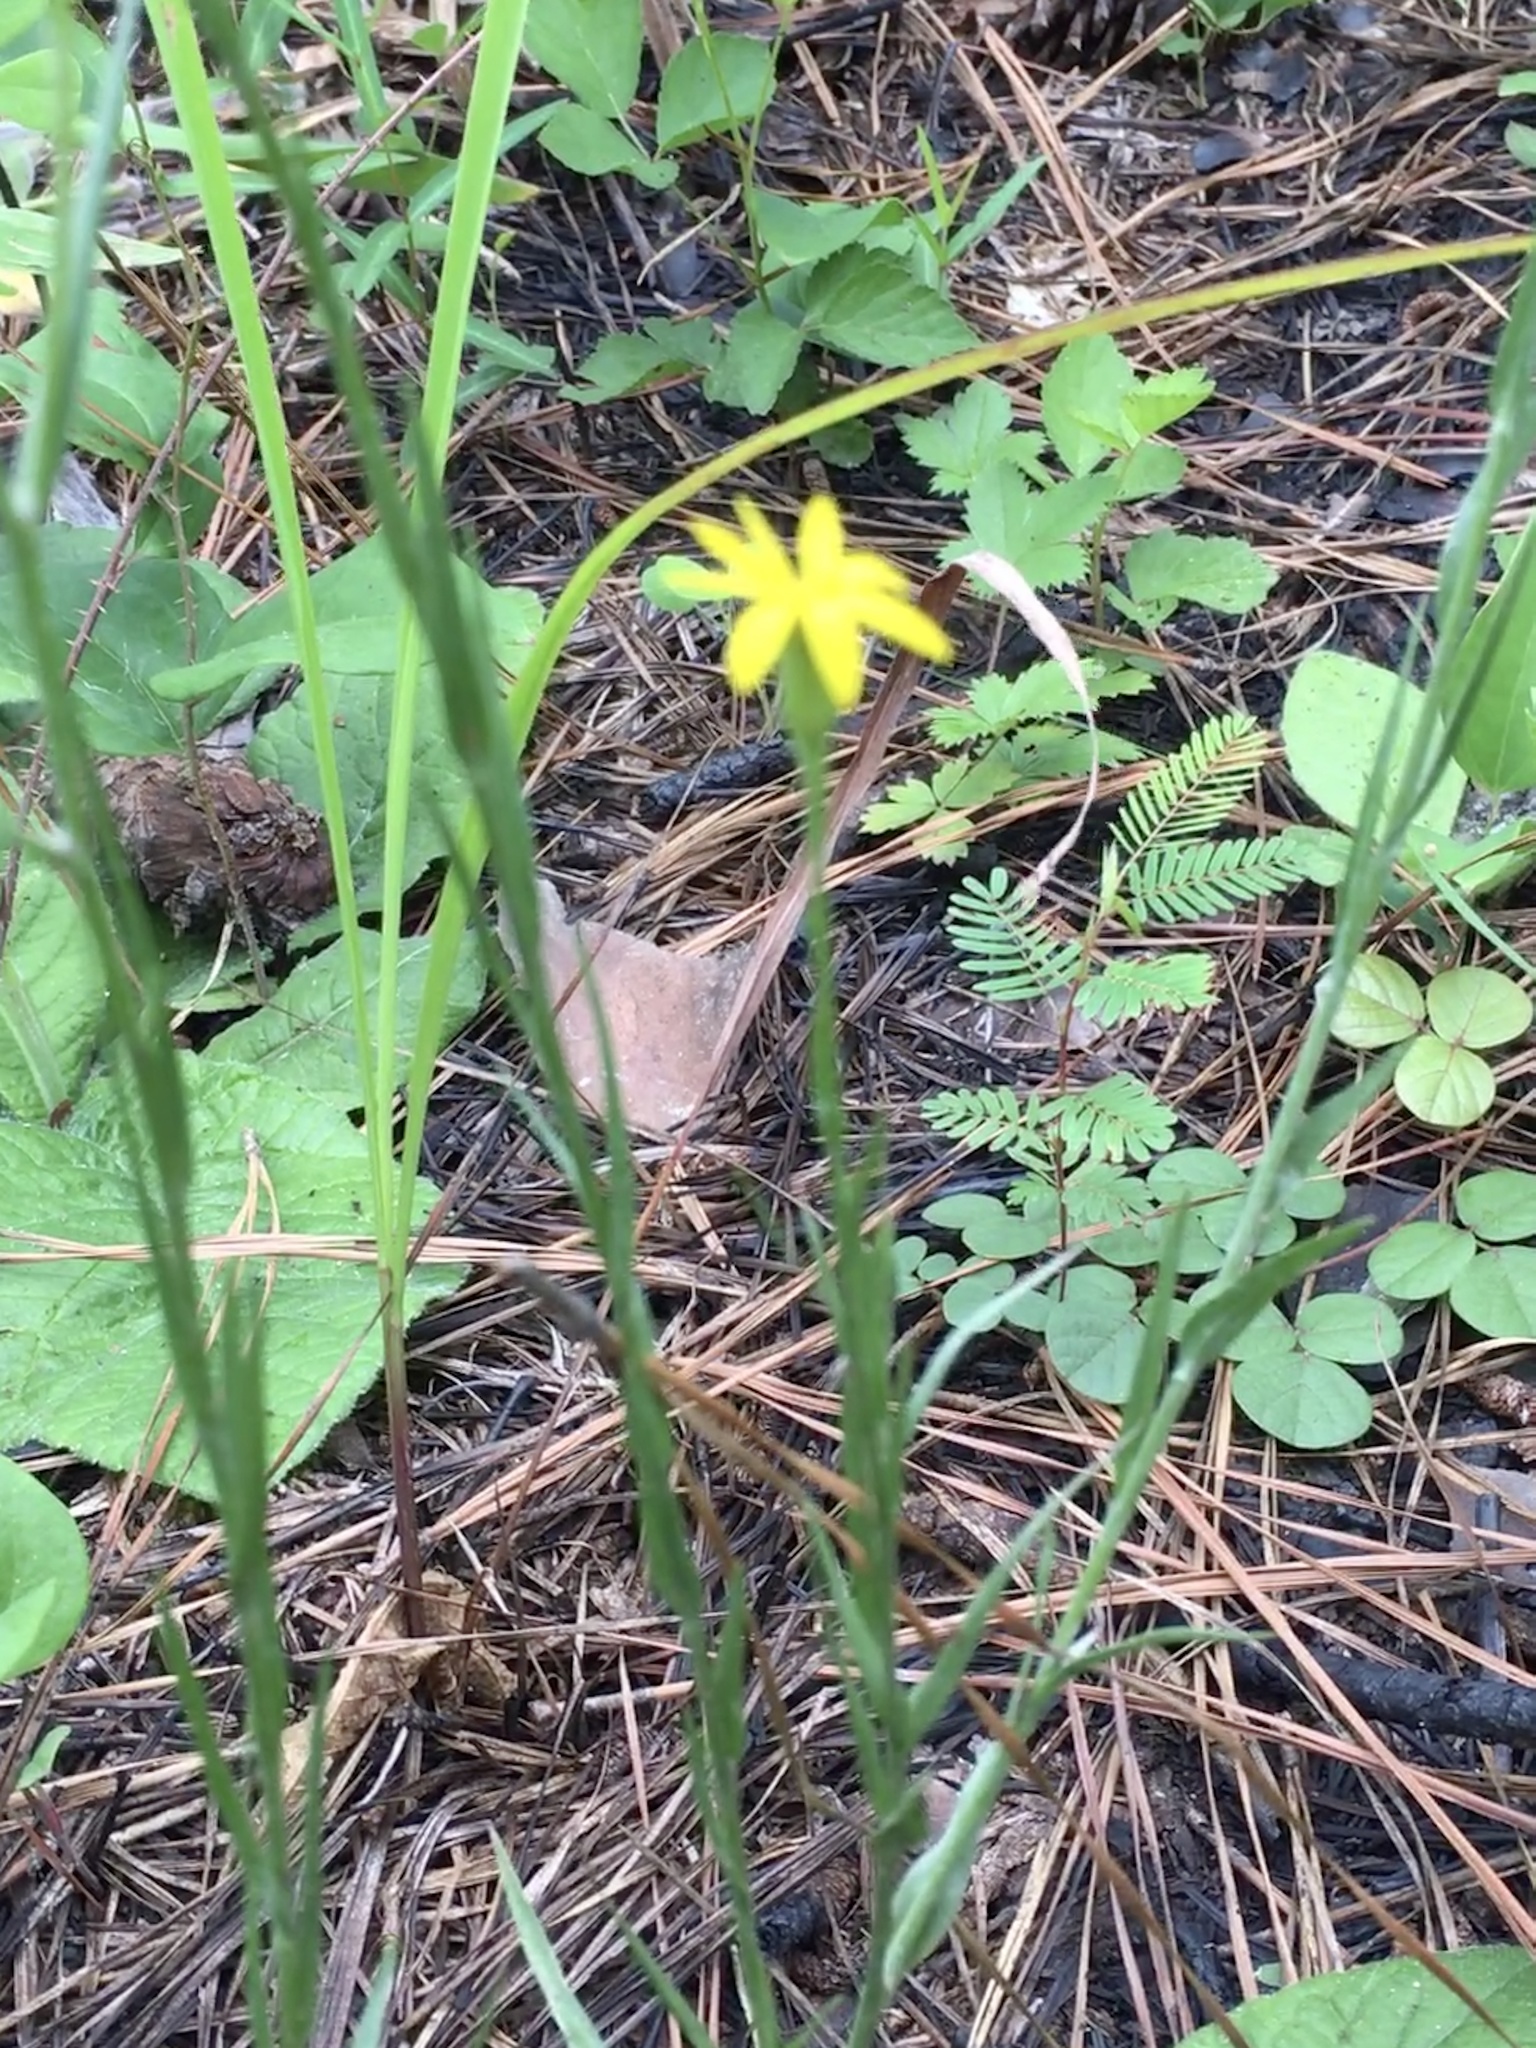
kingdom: Plantae
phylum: Tracheophyta
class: Magnoliopsida
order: Asterales
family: Asteraceae
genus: Pityopsis
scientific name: Pityopsis aspera
